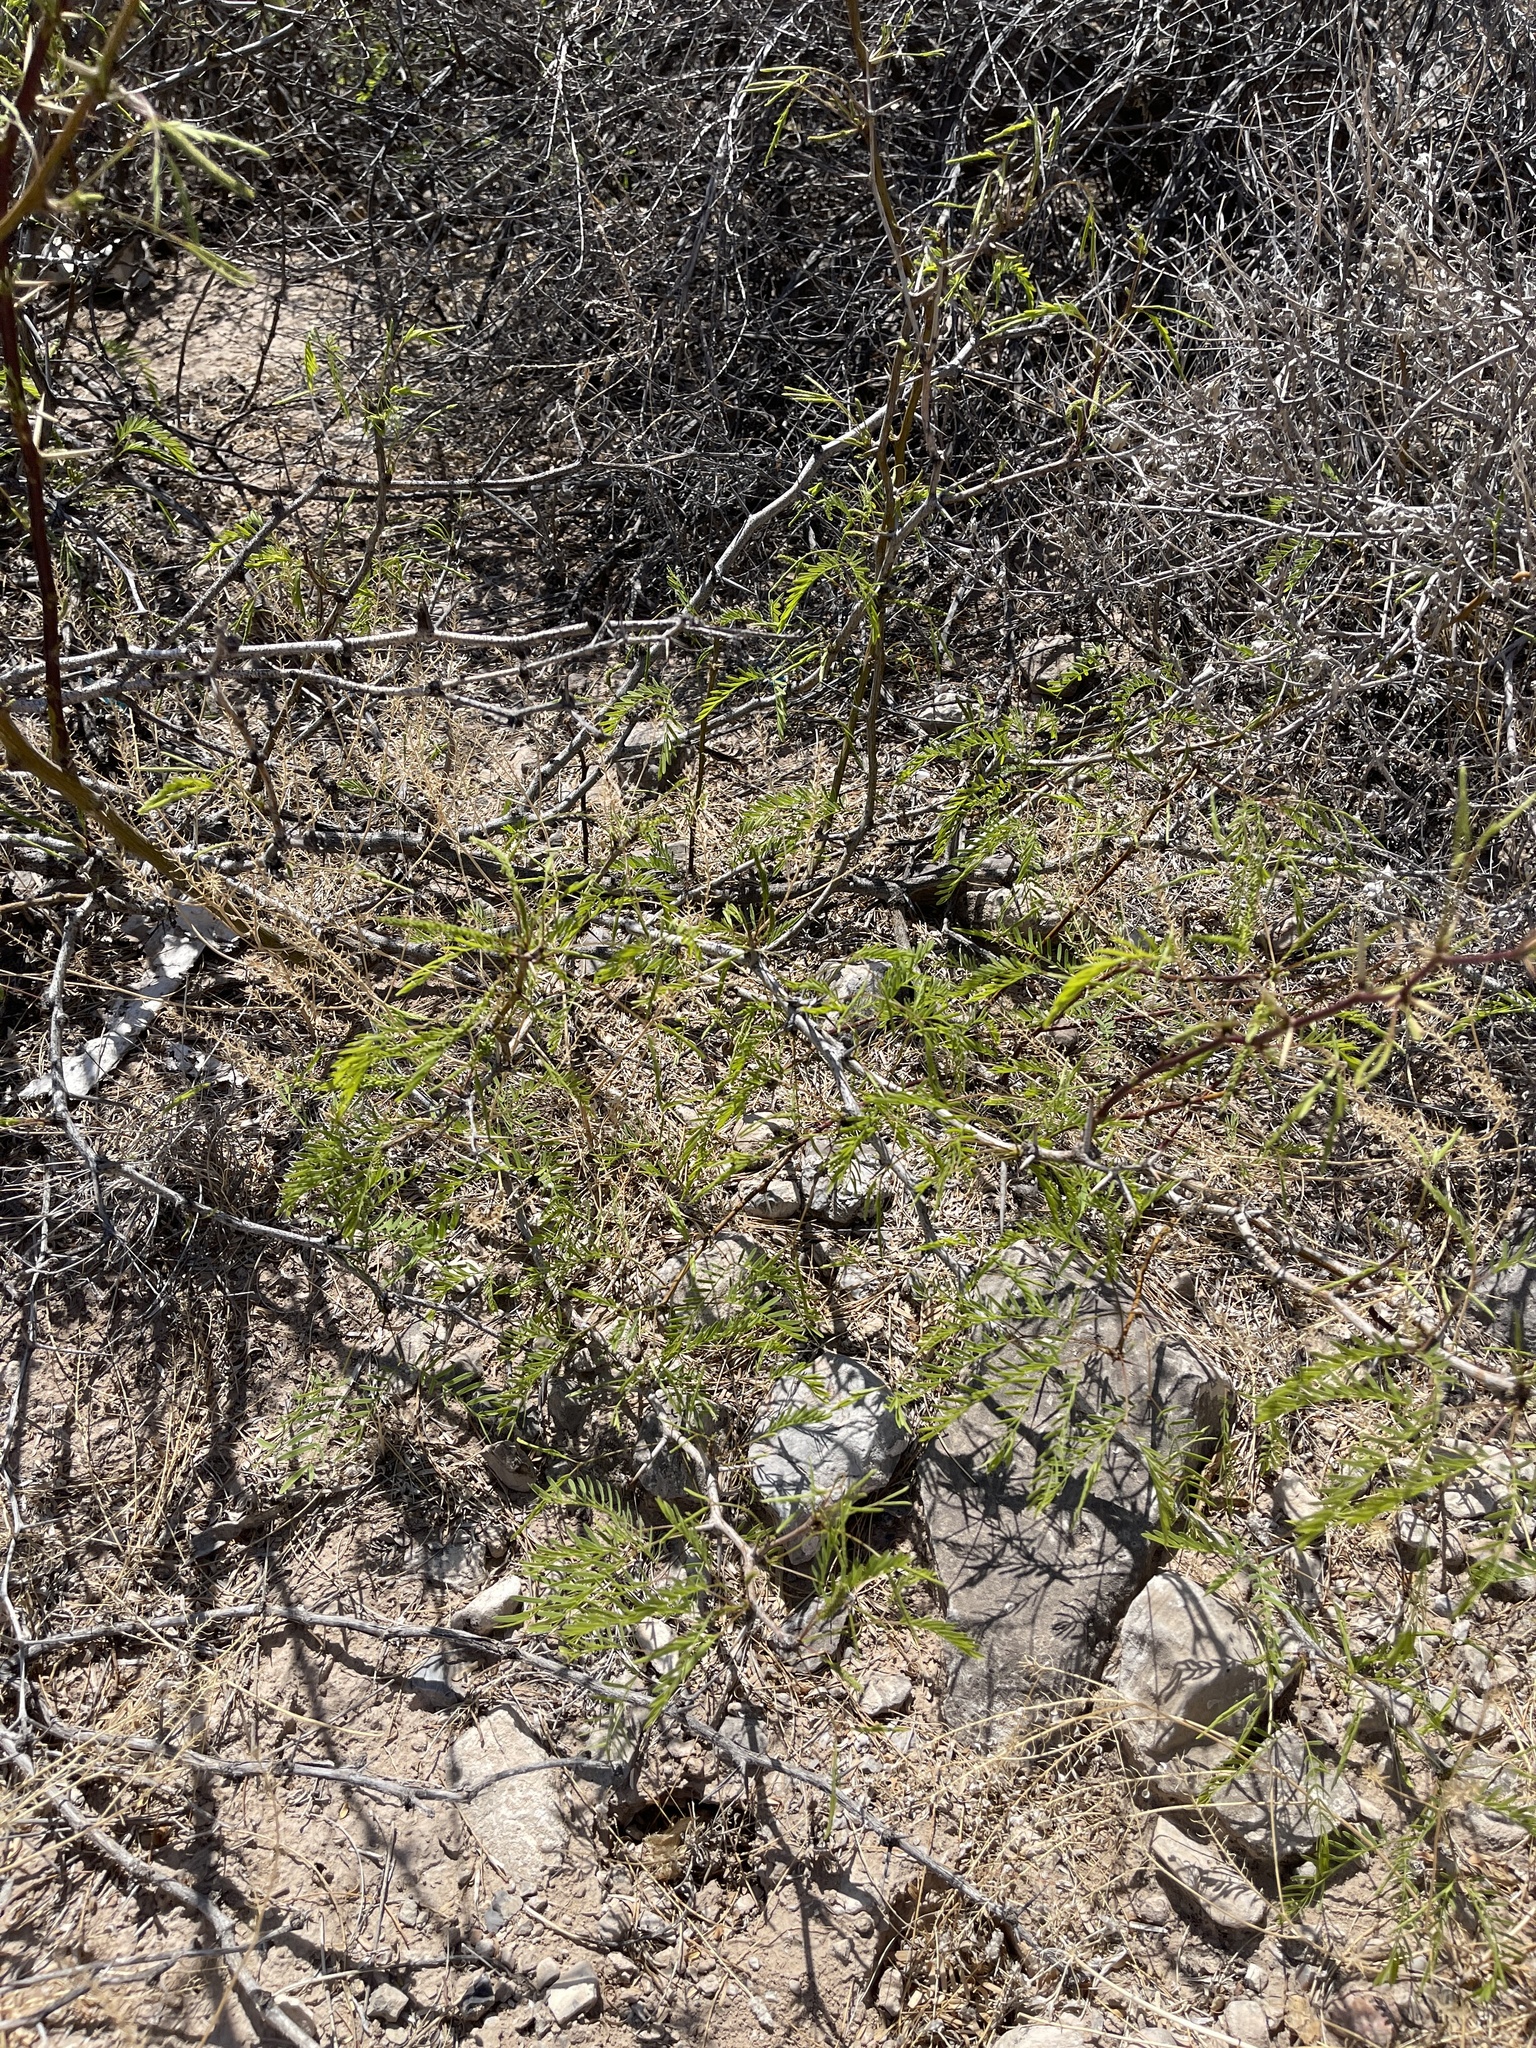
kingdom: Plantae
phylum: Tracheophyta
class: Magnoliopsida
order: Fabales
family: Fabaceae
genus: Prosopis
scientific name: Prosopis glandulosa
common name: Honey mesquite
